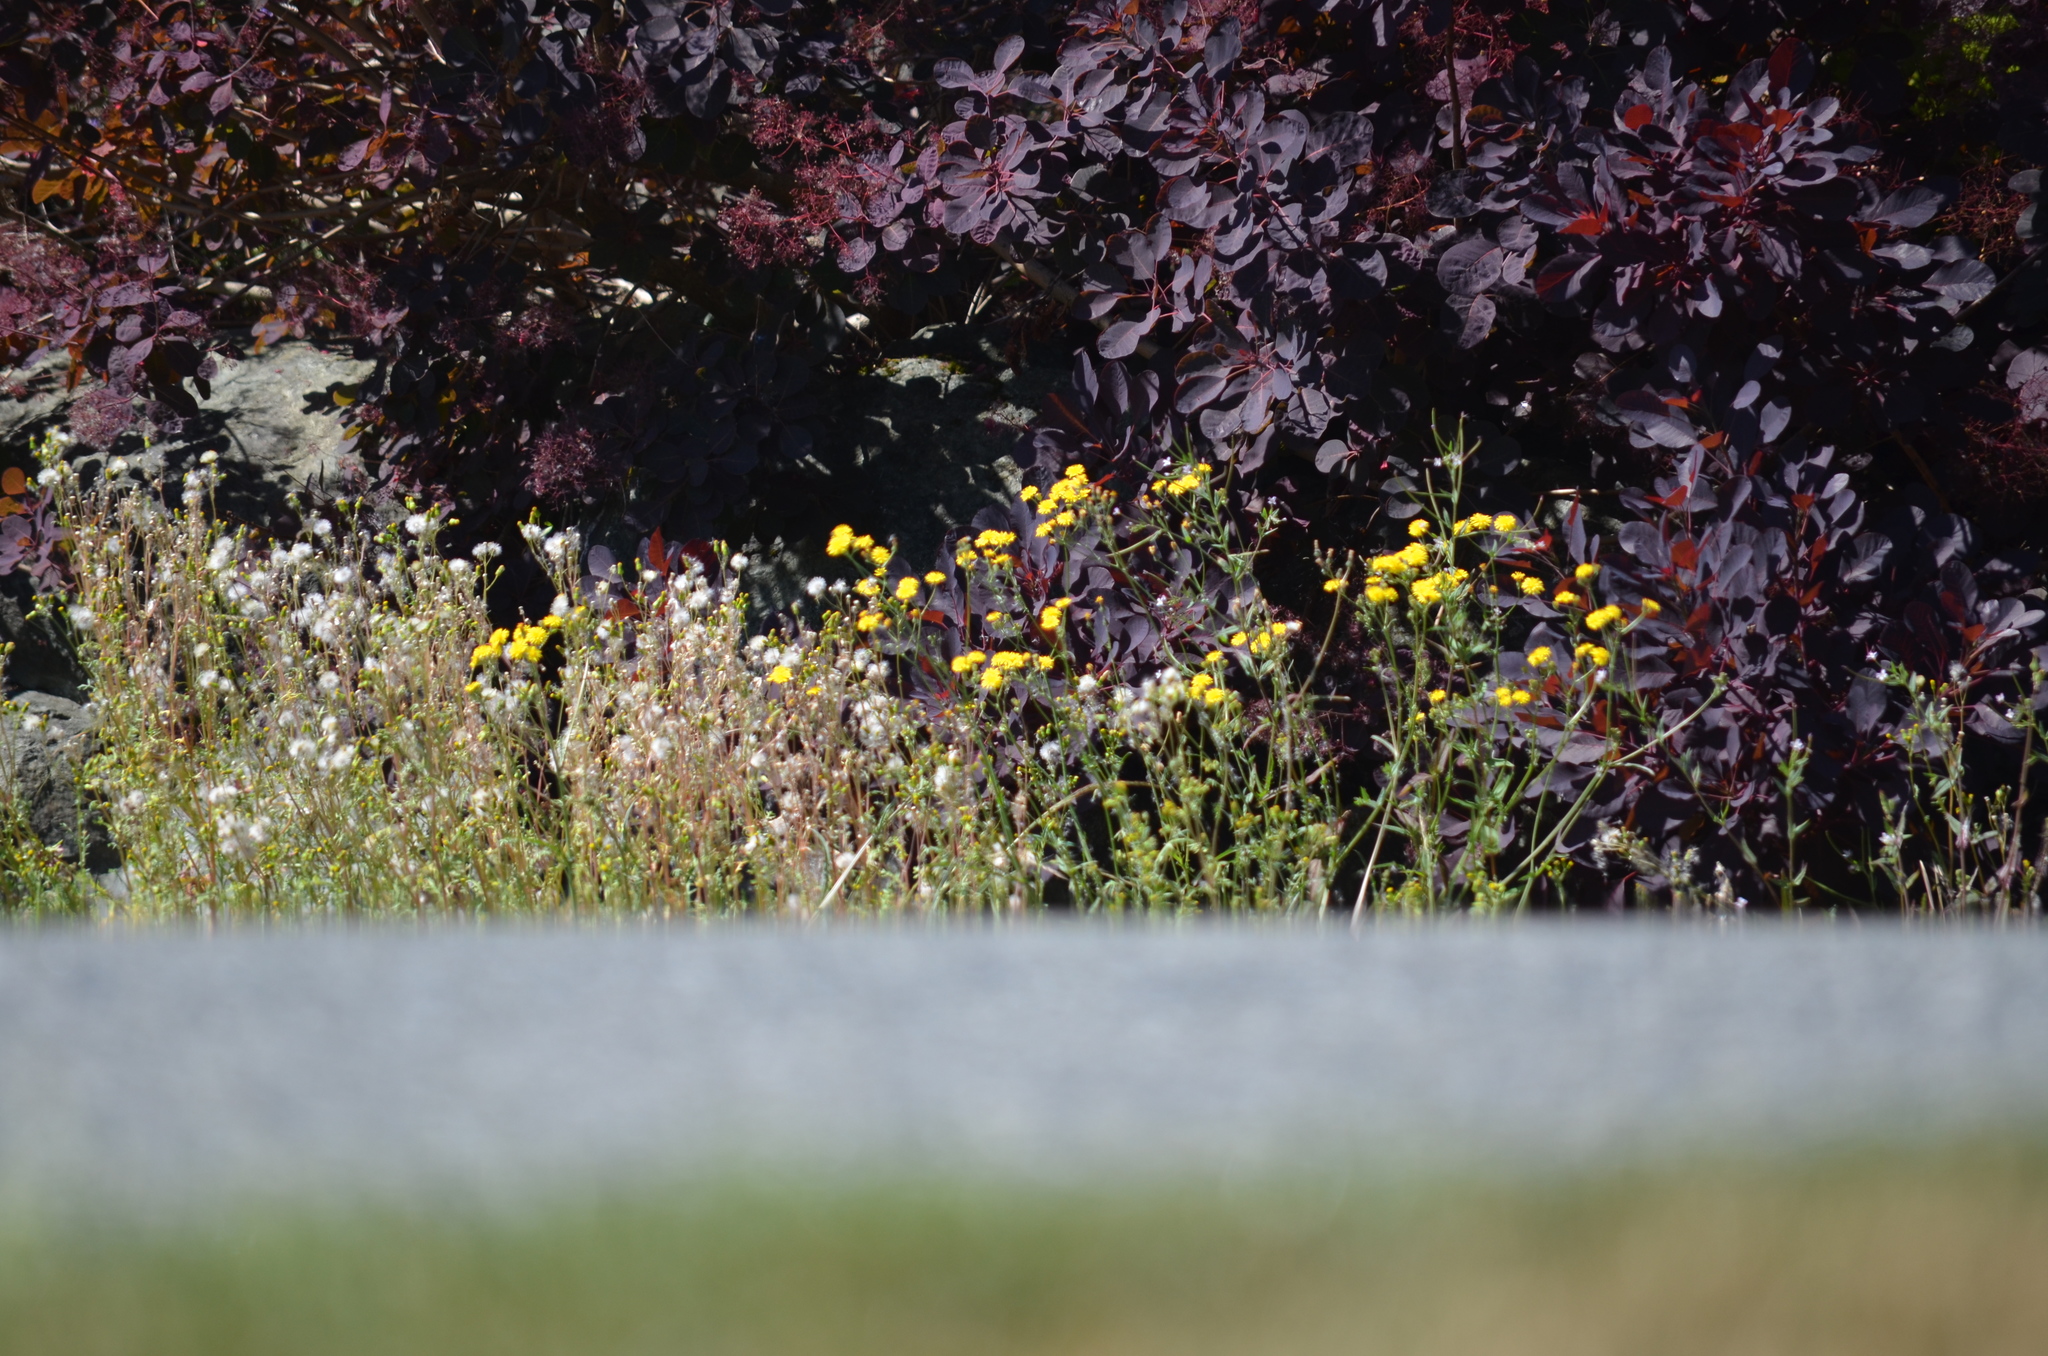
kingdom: Plantae
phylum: Tracheophyta
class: Magnoliopsida
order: Asterales
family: Asteraceae
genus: Crepis
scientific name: Crepis capillaris
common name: Smooth hawksbeard
